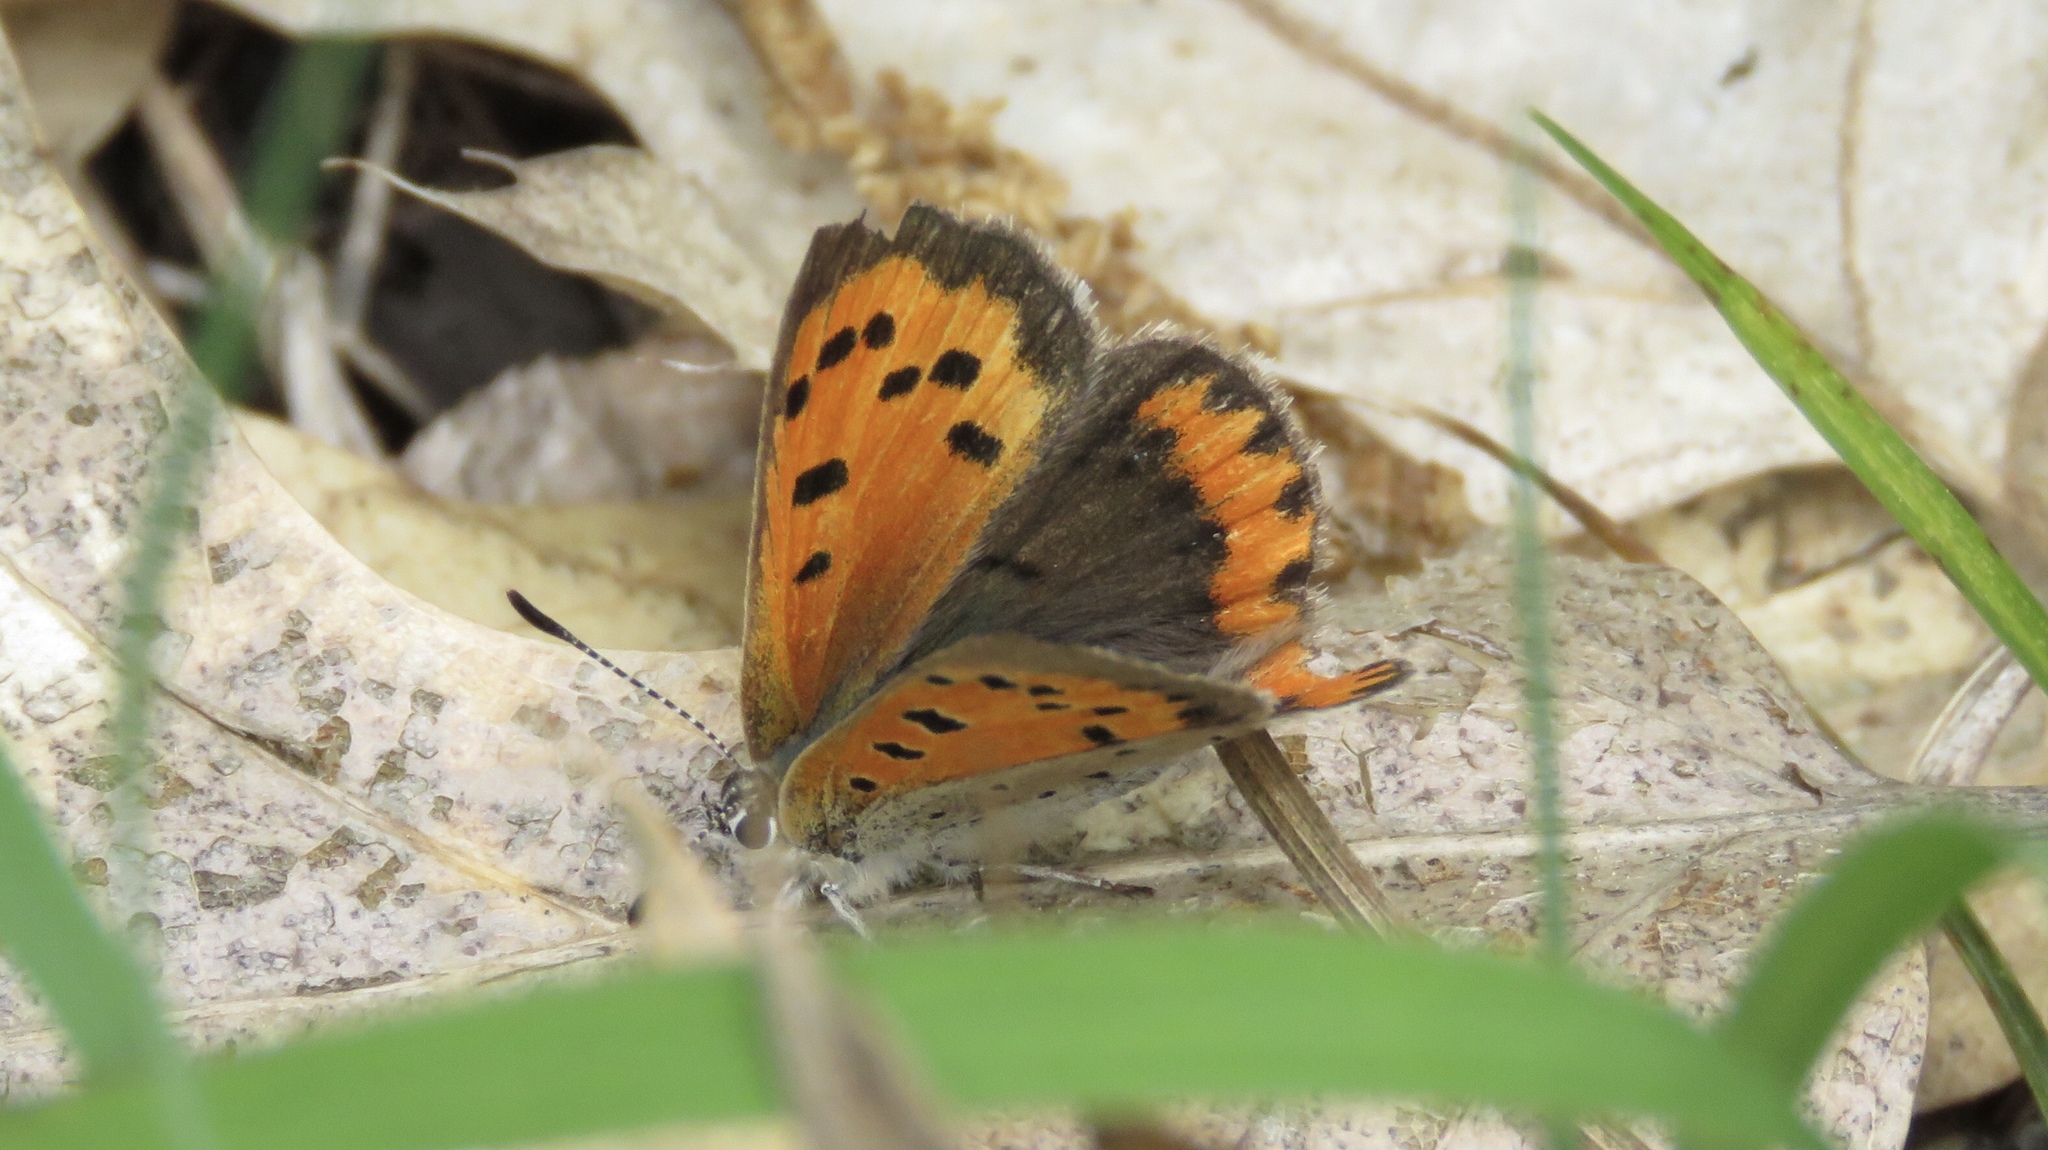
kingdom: Animalia
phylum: Arthropoda
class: Insecta
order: Lepidoptera
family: Lycaenidae
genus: Lycaena
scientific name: Lycaena hypophlaeas
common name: American copper
